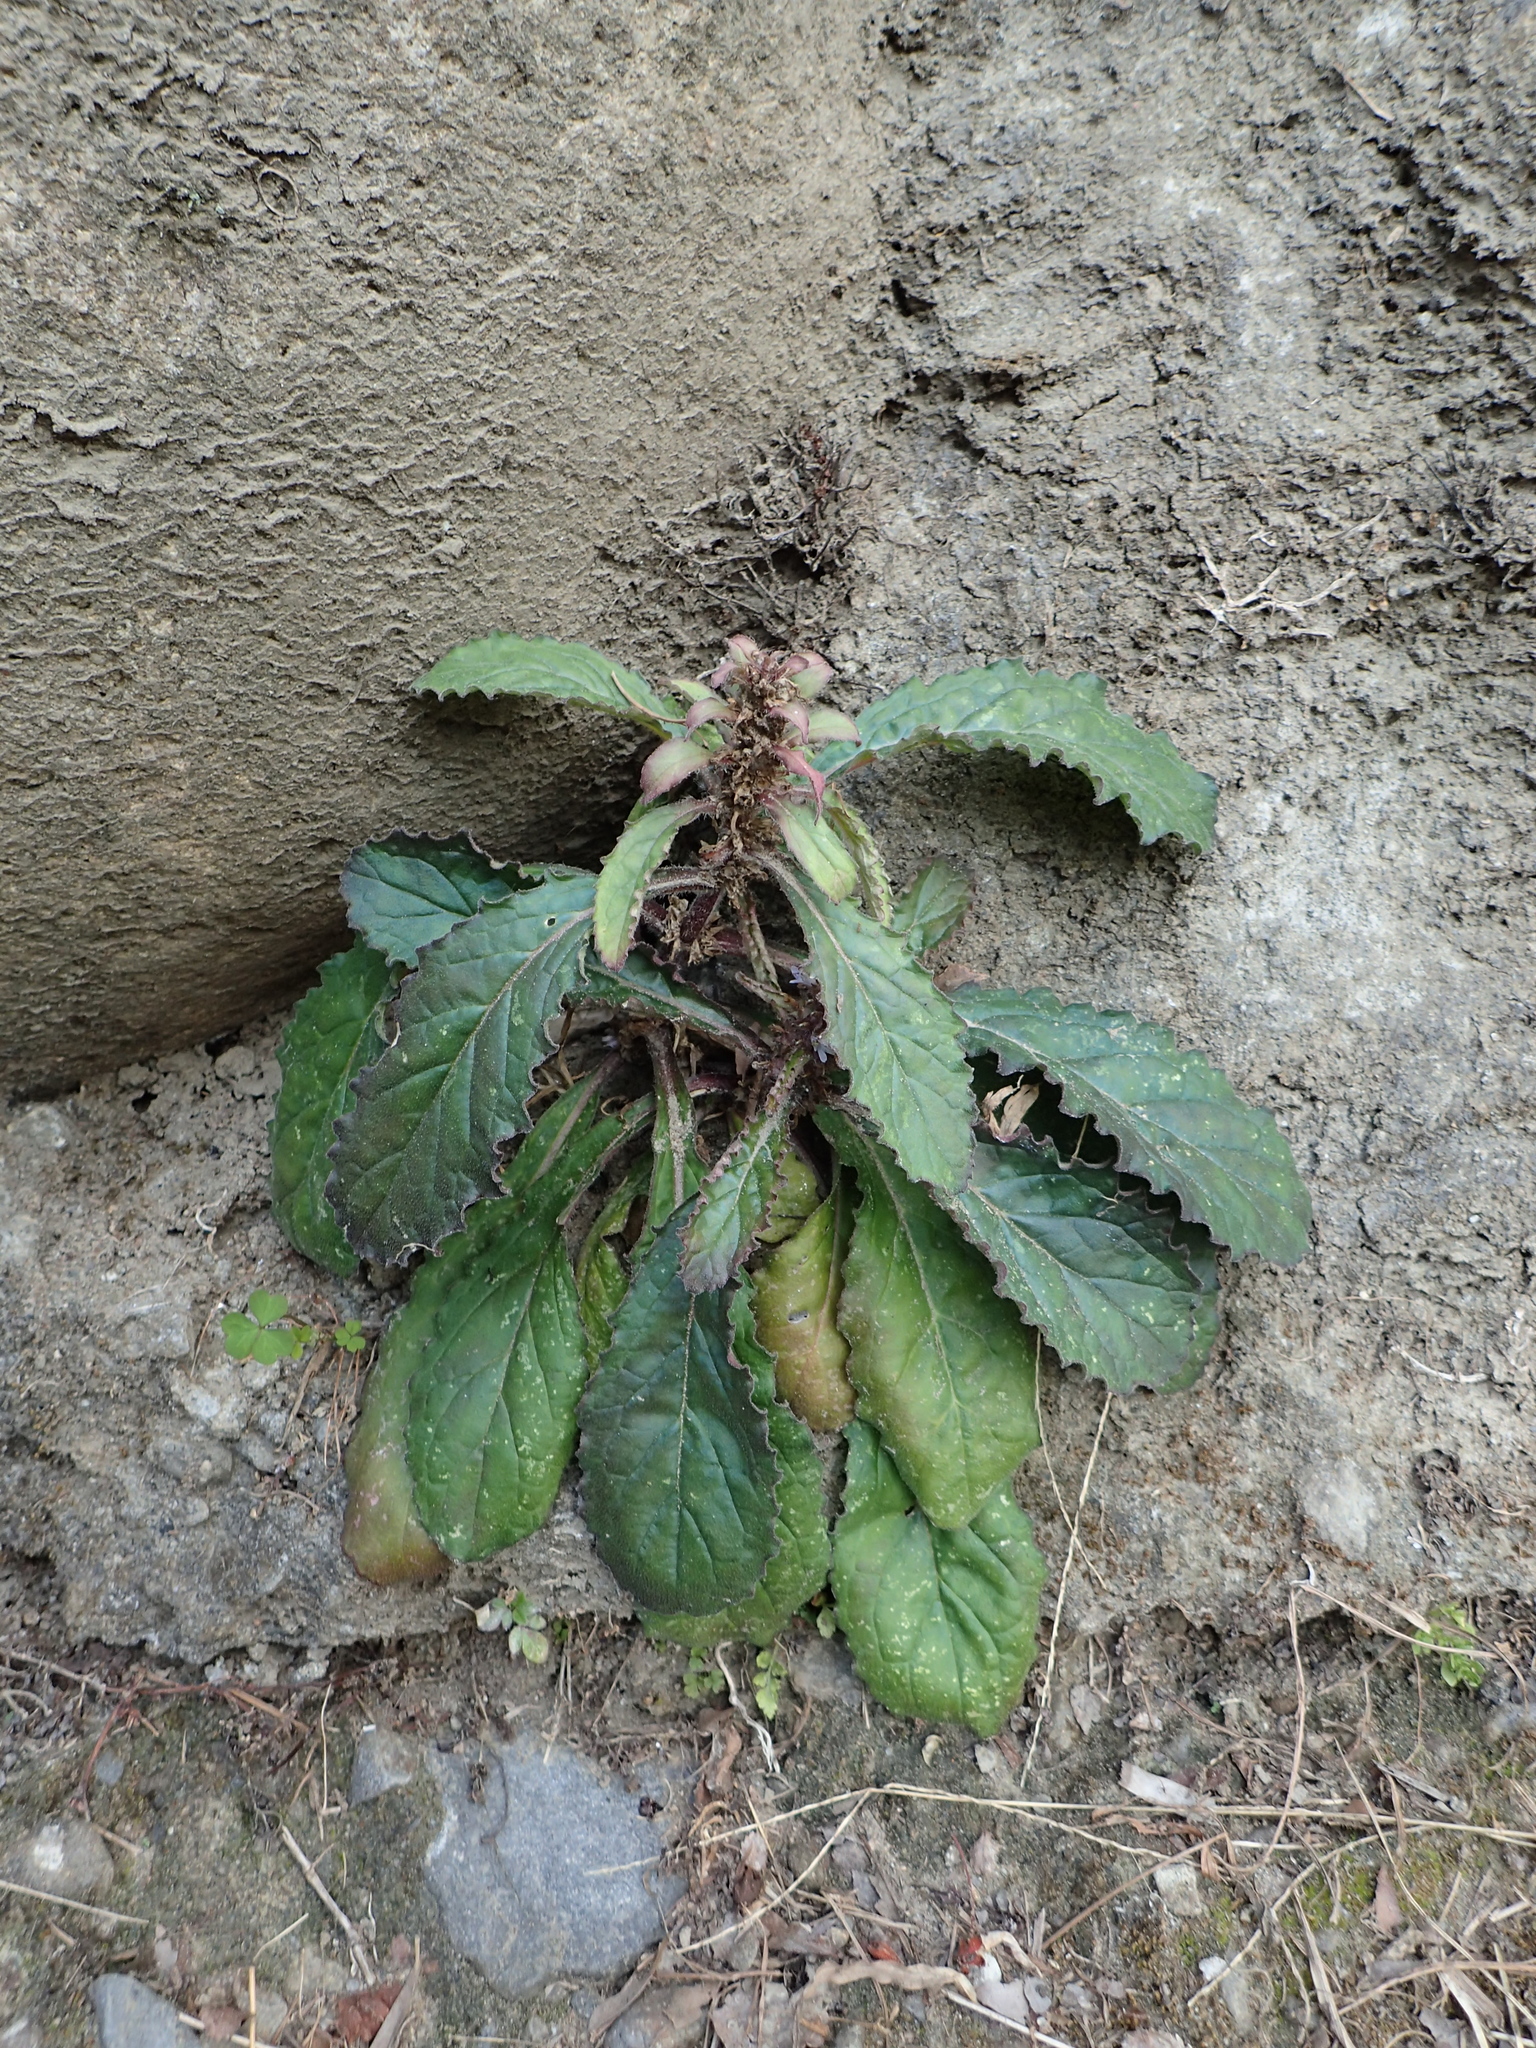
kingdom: Plantae
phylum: Tracheophyta
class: Magnoliopsida
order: Lamiales
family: Lamiaceae
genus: Ajuga
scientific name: Ajuga nipponensis
